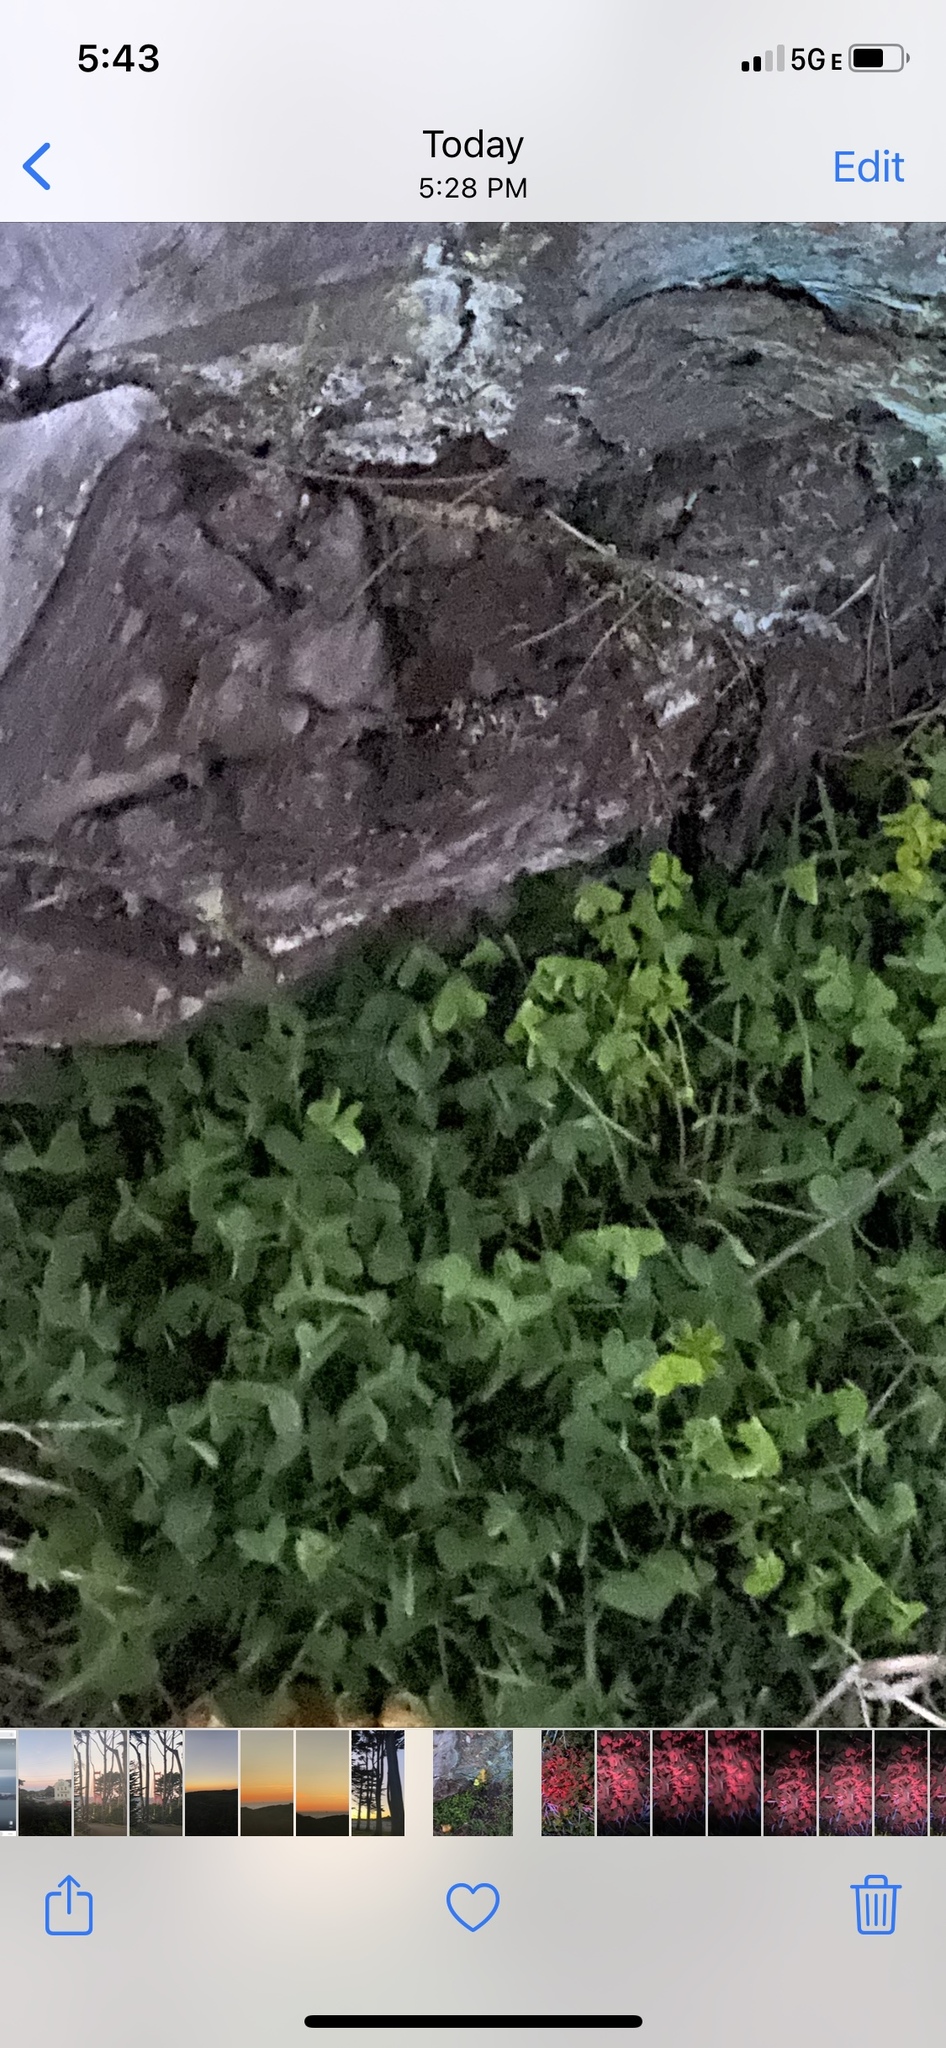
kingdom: Plantae
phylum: Tracheophyta
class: Magnoliopsida
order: Oxalidales
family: Oxalidaceae
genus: Oxalis
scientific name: Oxalis pes-caprae
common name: Bermuda-buttercup
